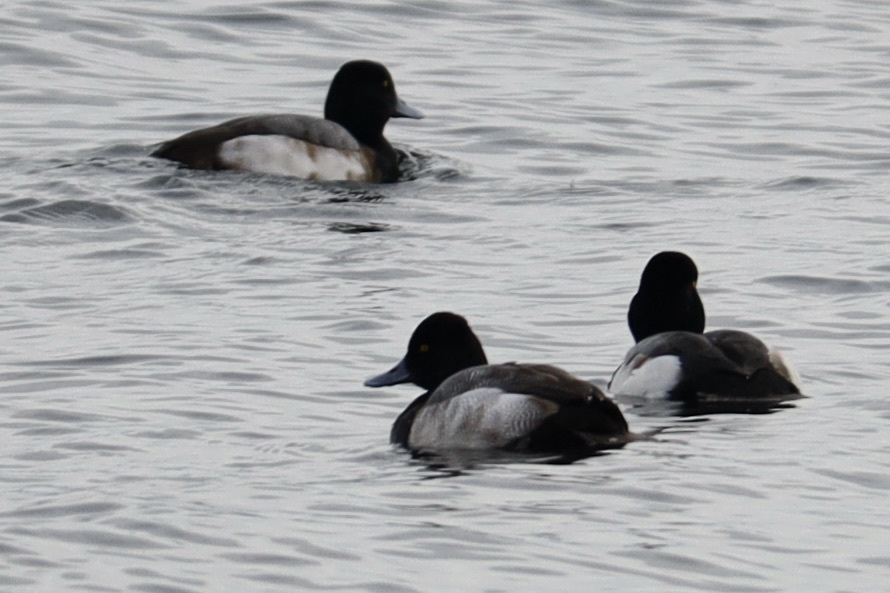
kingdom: Animalia
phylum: Chordata
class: Aves
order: Anseriformes
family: Anatidae
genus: Aythya
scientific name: Aythya affinis
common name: Lesser scaup
